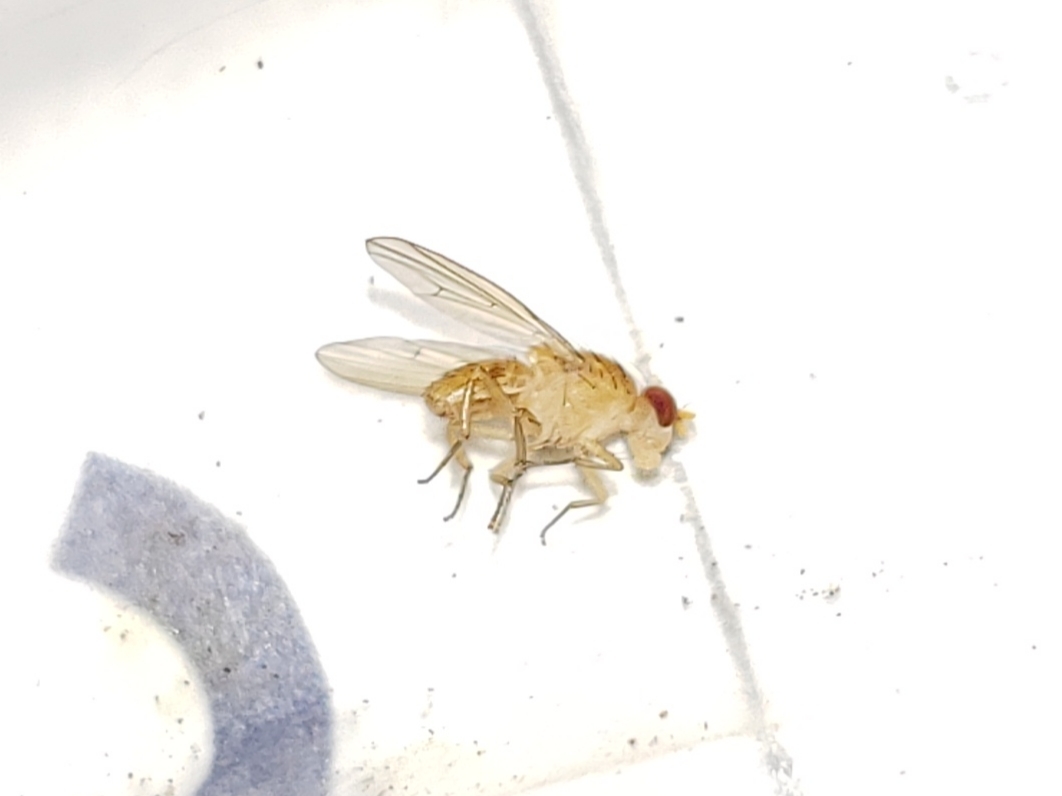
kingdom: Animalia
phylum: Arthropoda
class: Insecta
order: Diptera
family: Lauxaniidae
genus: Neogriphoneura
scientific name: Neogriphoneura sordida
